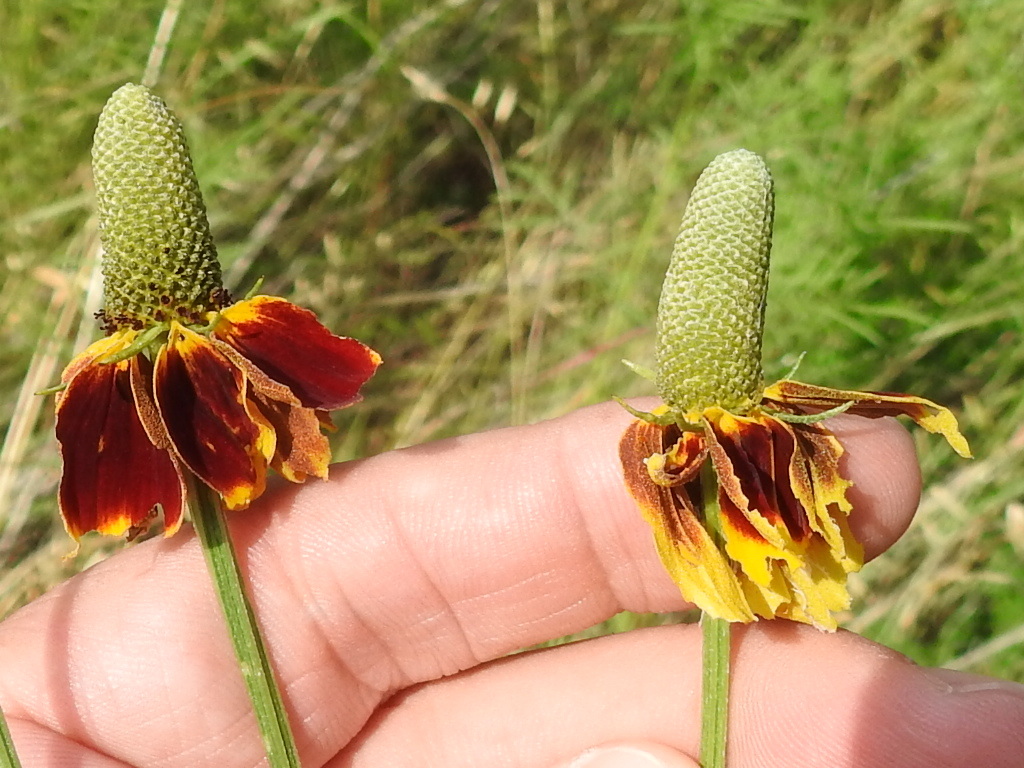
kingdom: Plantae
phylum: Tracheophyta
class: Magnoliopsida
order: Asterales
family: Asteraceae
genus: Ratibida
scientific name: Ratibida columnifera
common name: Prairie coneflower
